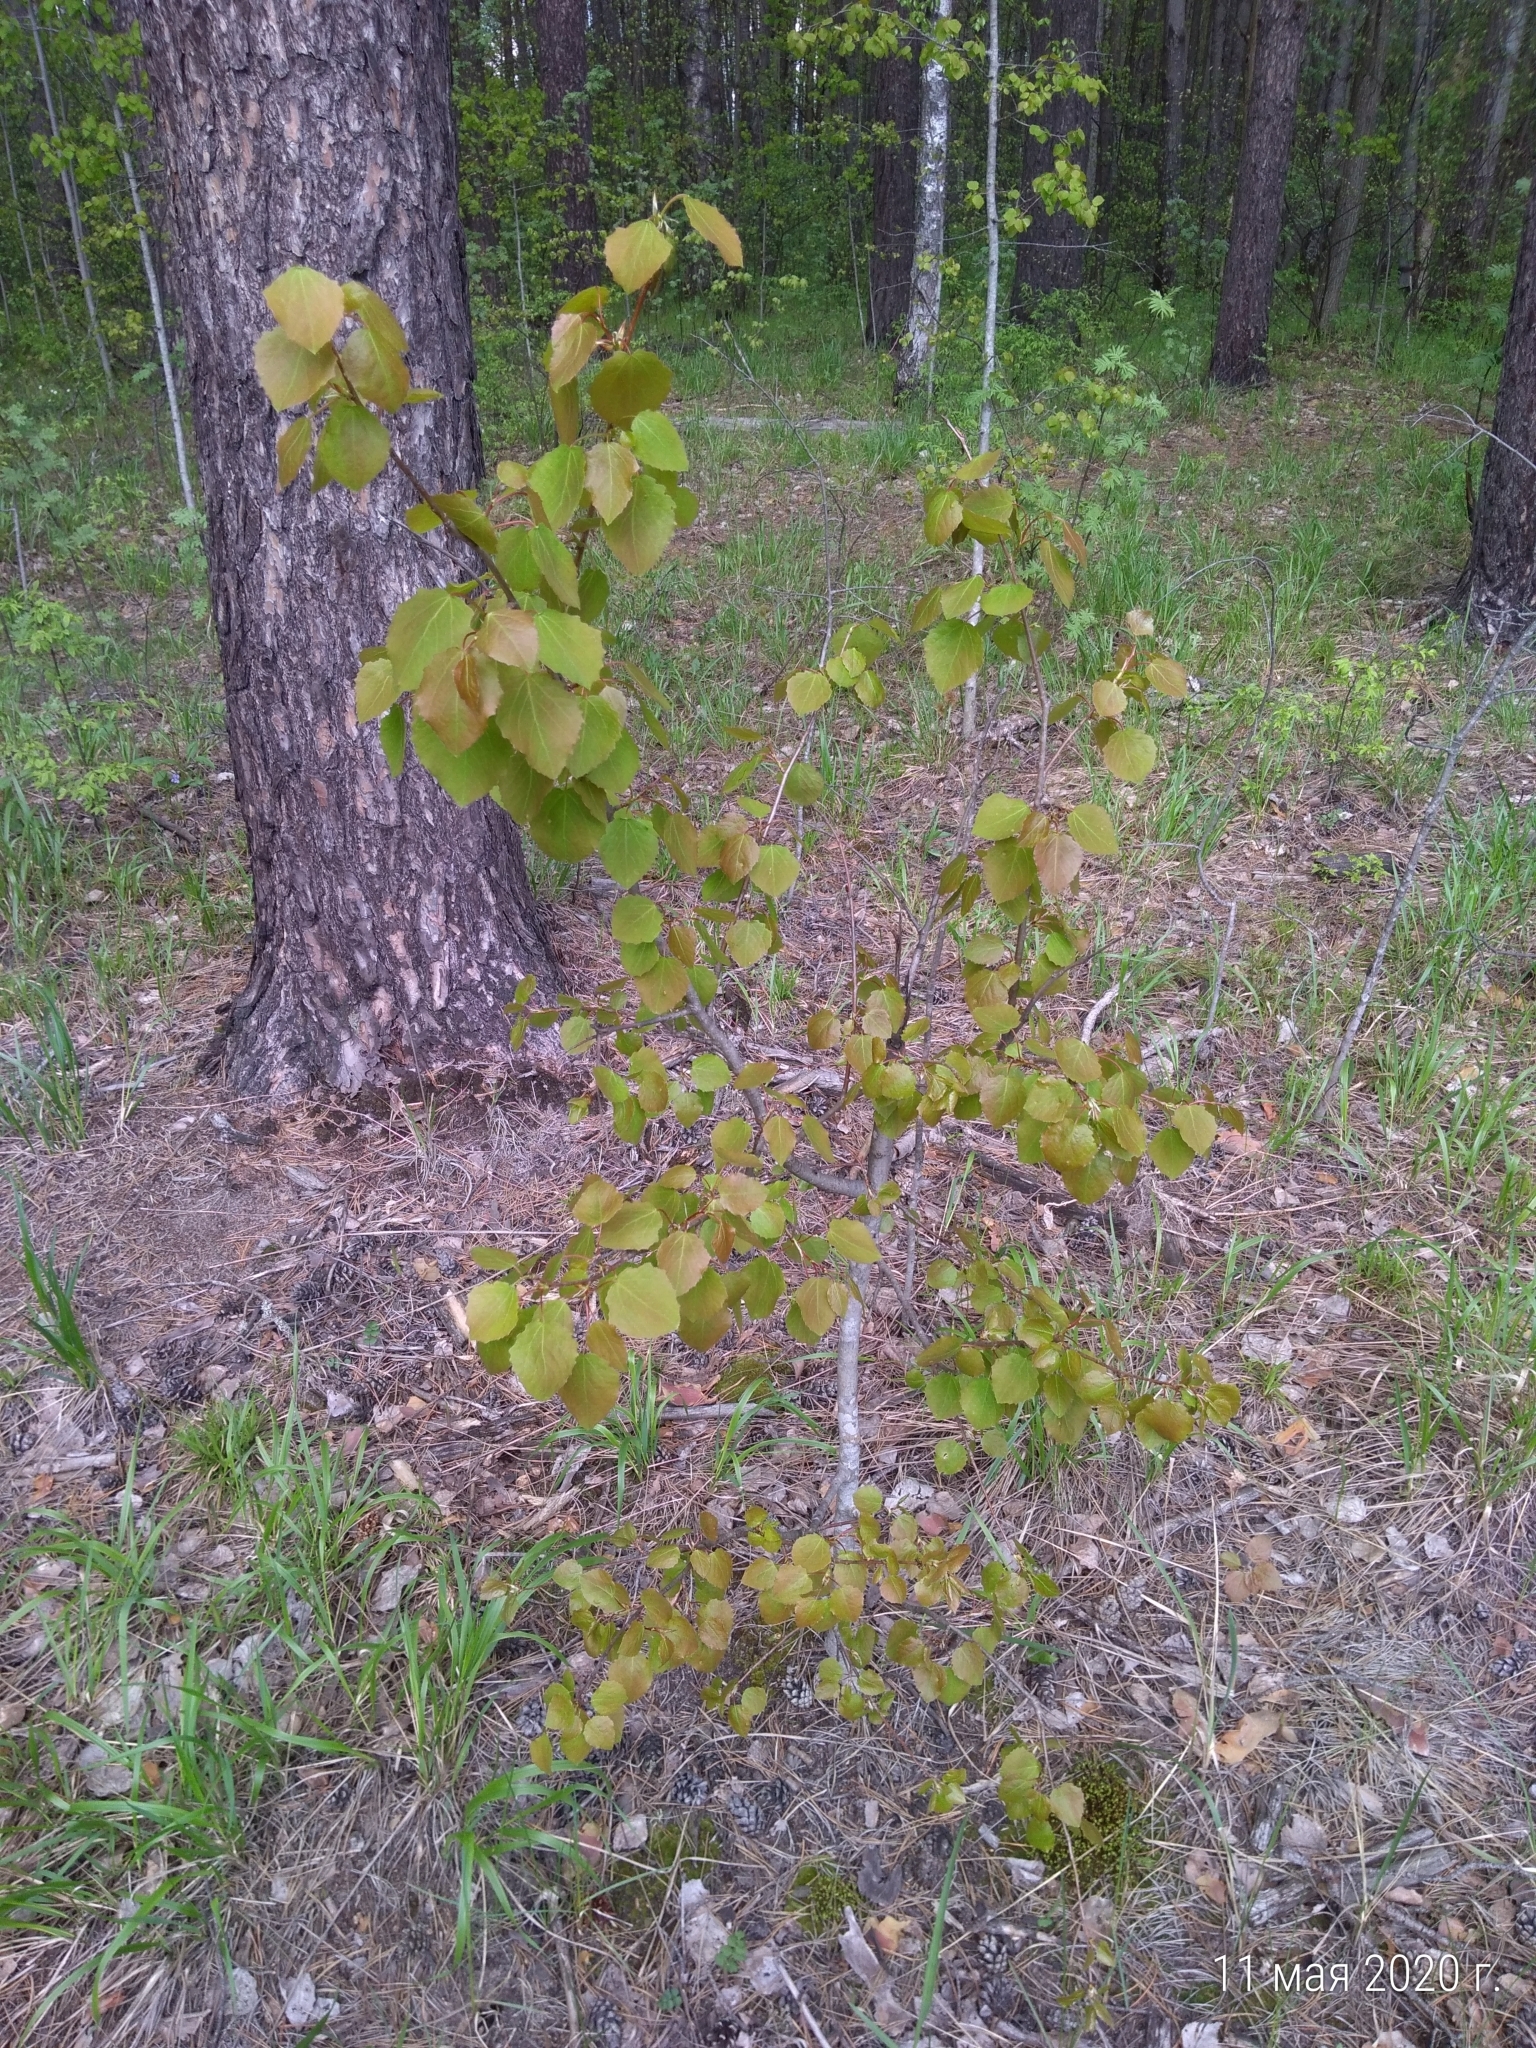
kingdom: Plantae
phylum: Tracheophyta
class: Magnoliopsida
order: Malpighiales
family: Salicaceae
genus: Populus
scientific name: Populus tremula
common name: European aspen
